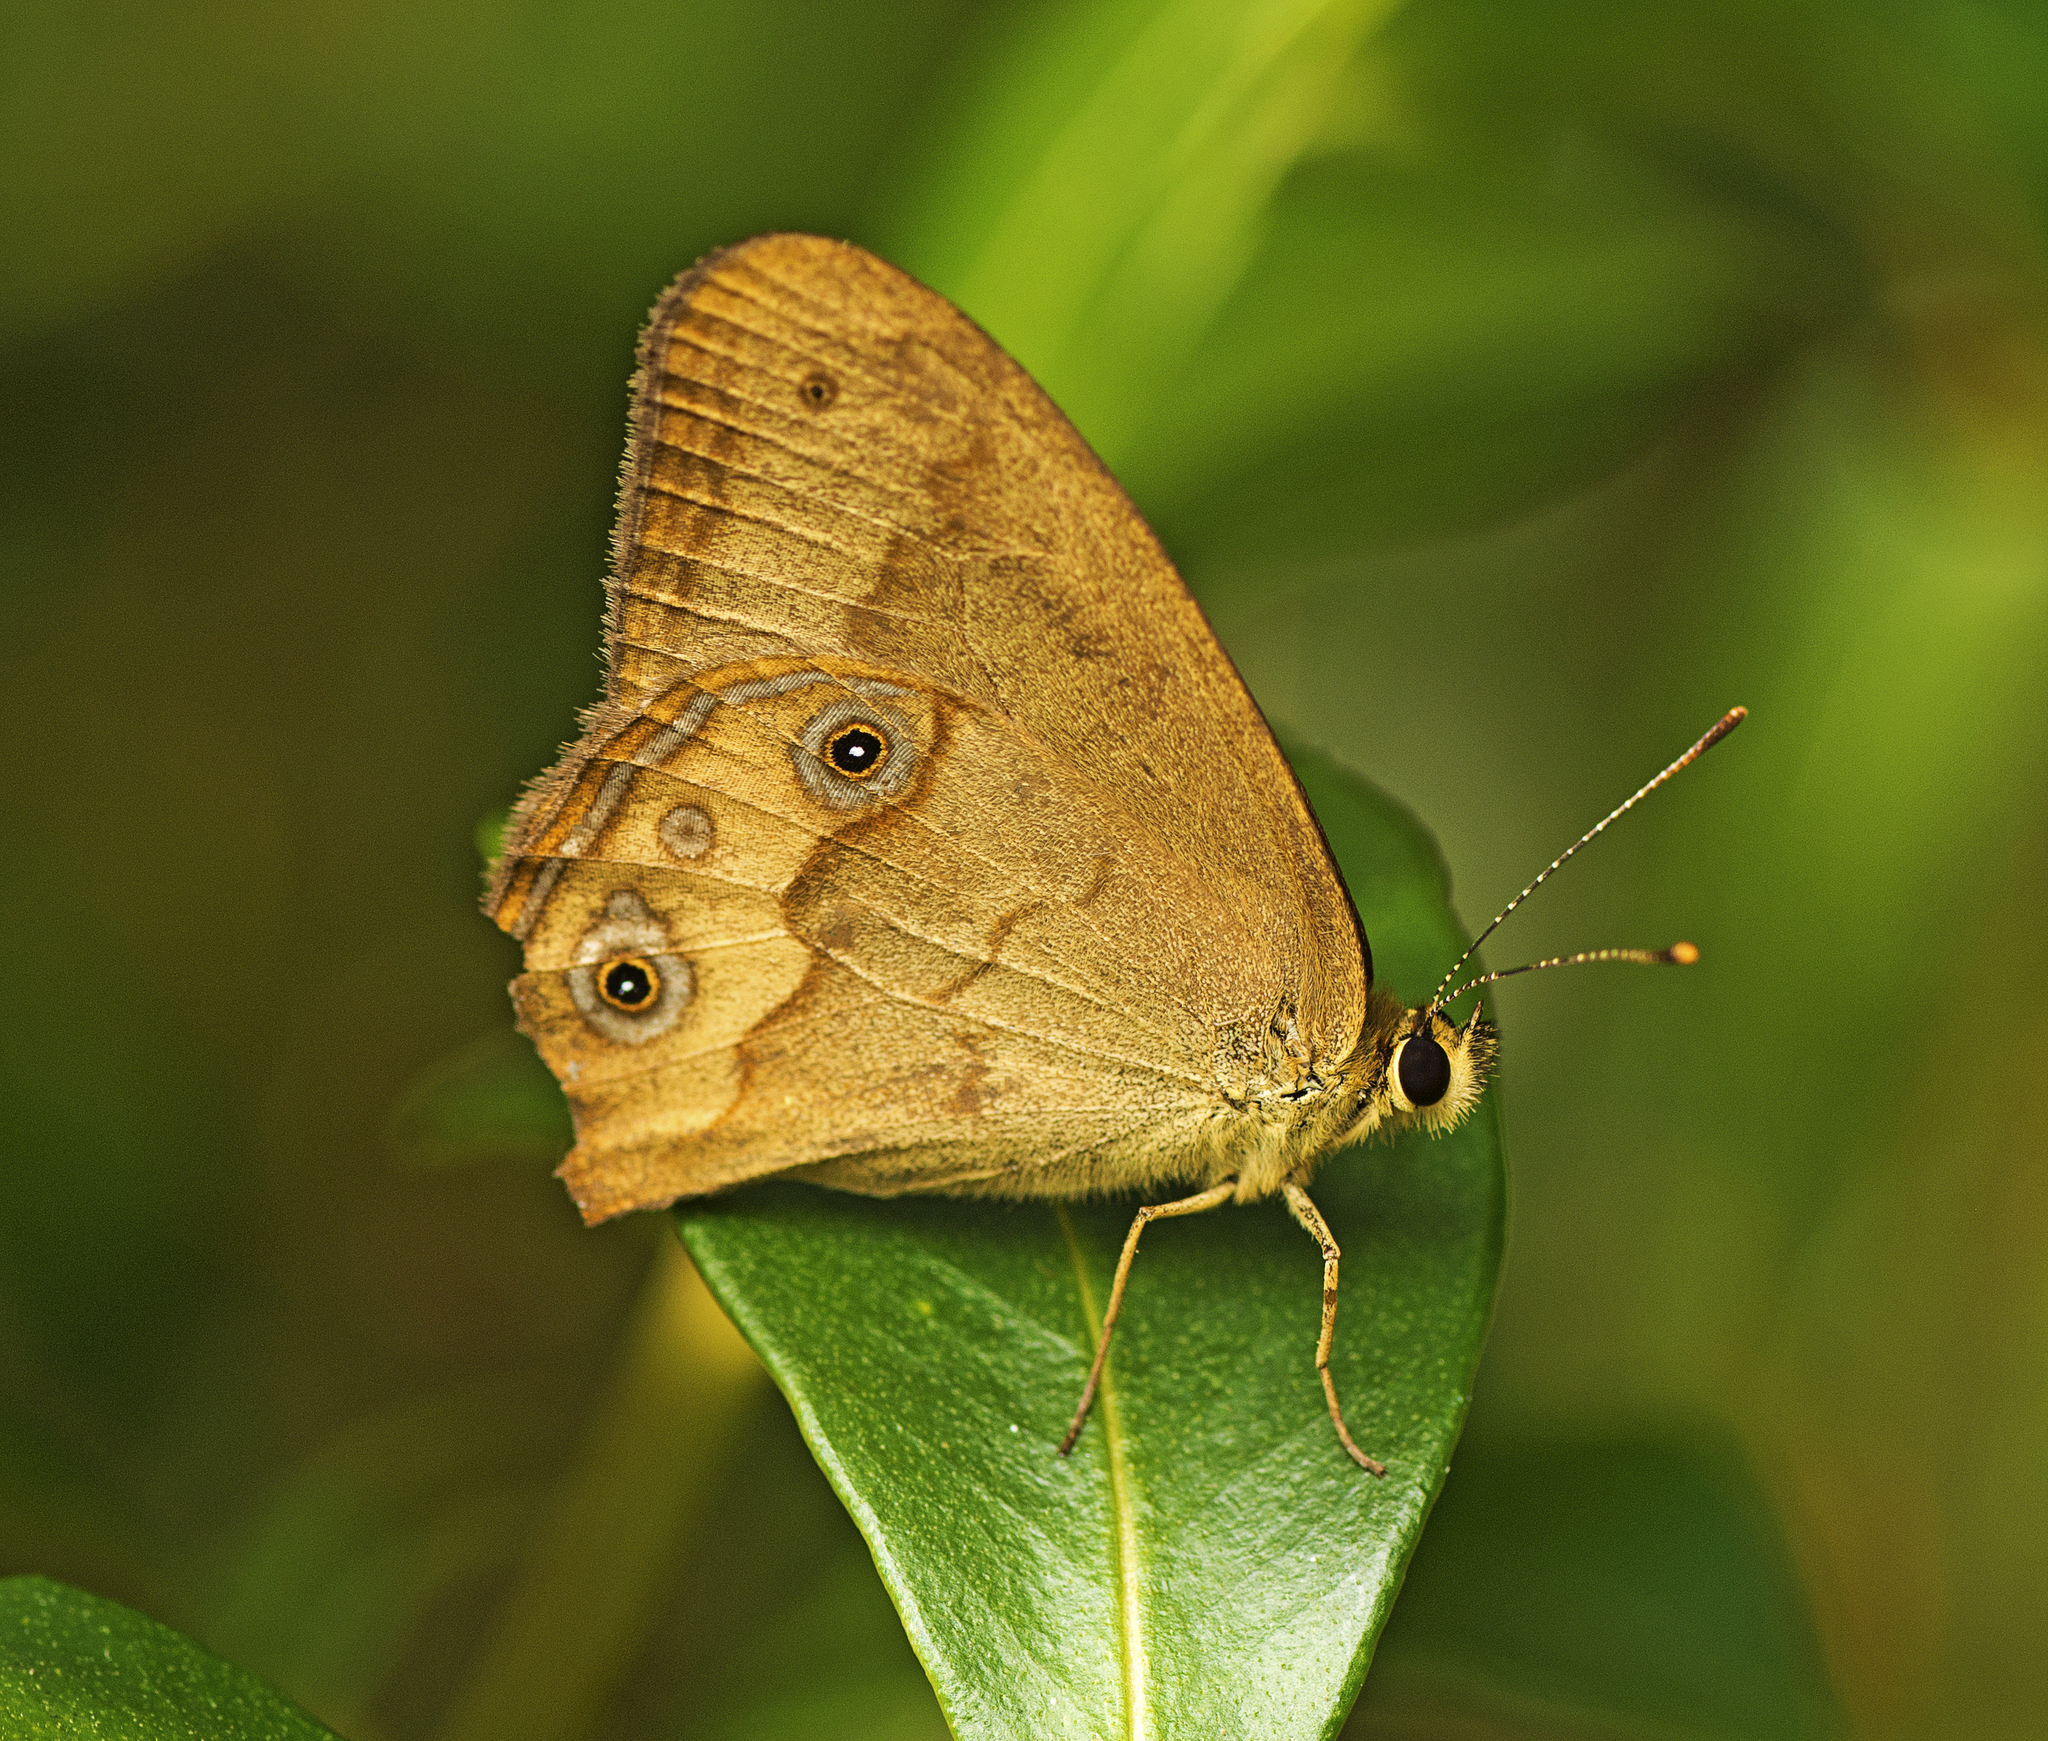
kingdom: Animalia
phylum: Arthropoda
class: Insecta
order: Lepidoptera
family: Nymphalidae
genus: Hypocysta
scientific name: Hypocysta metirius
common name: Brown ringlet
